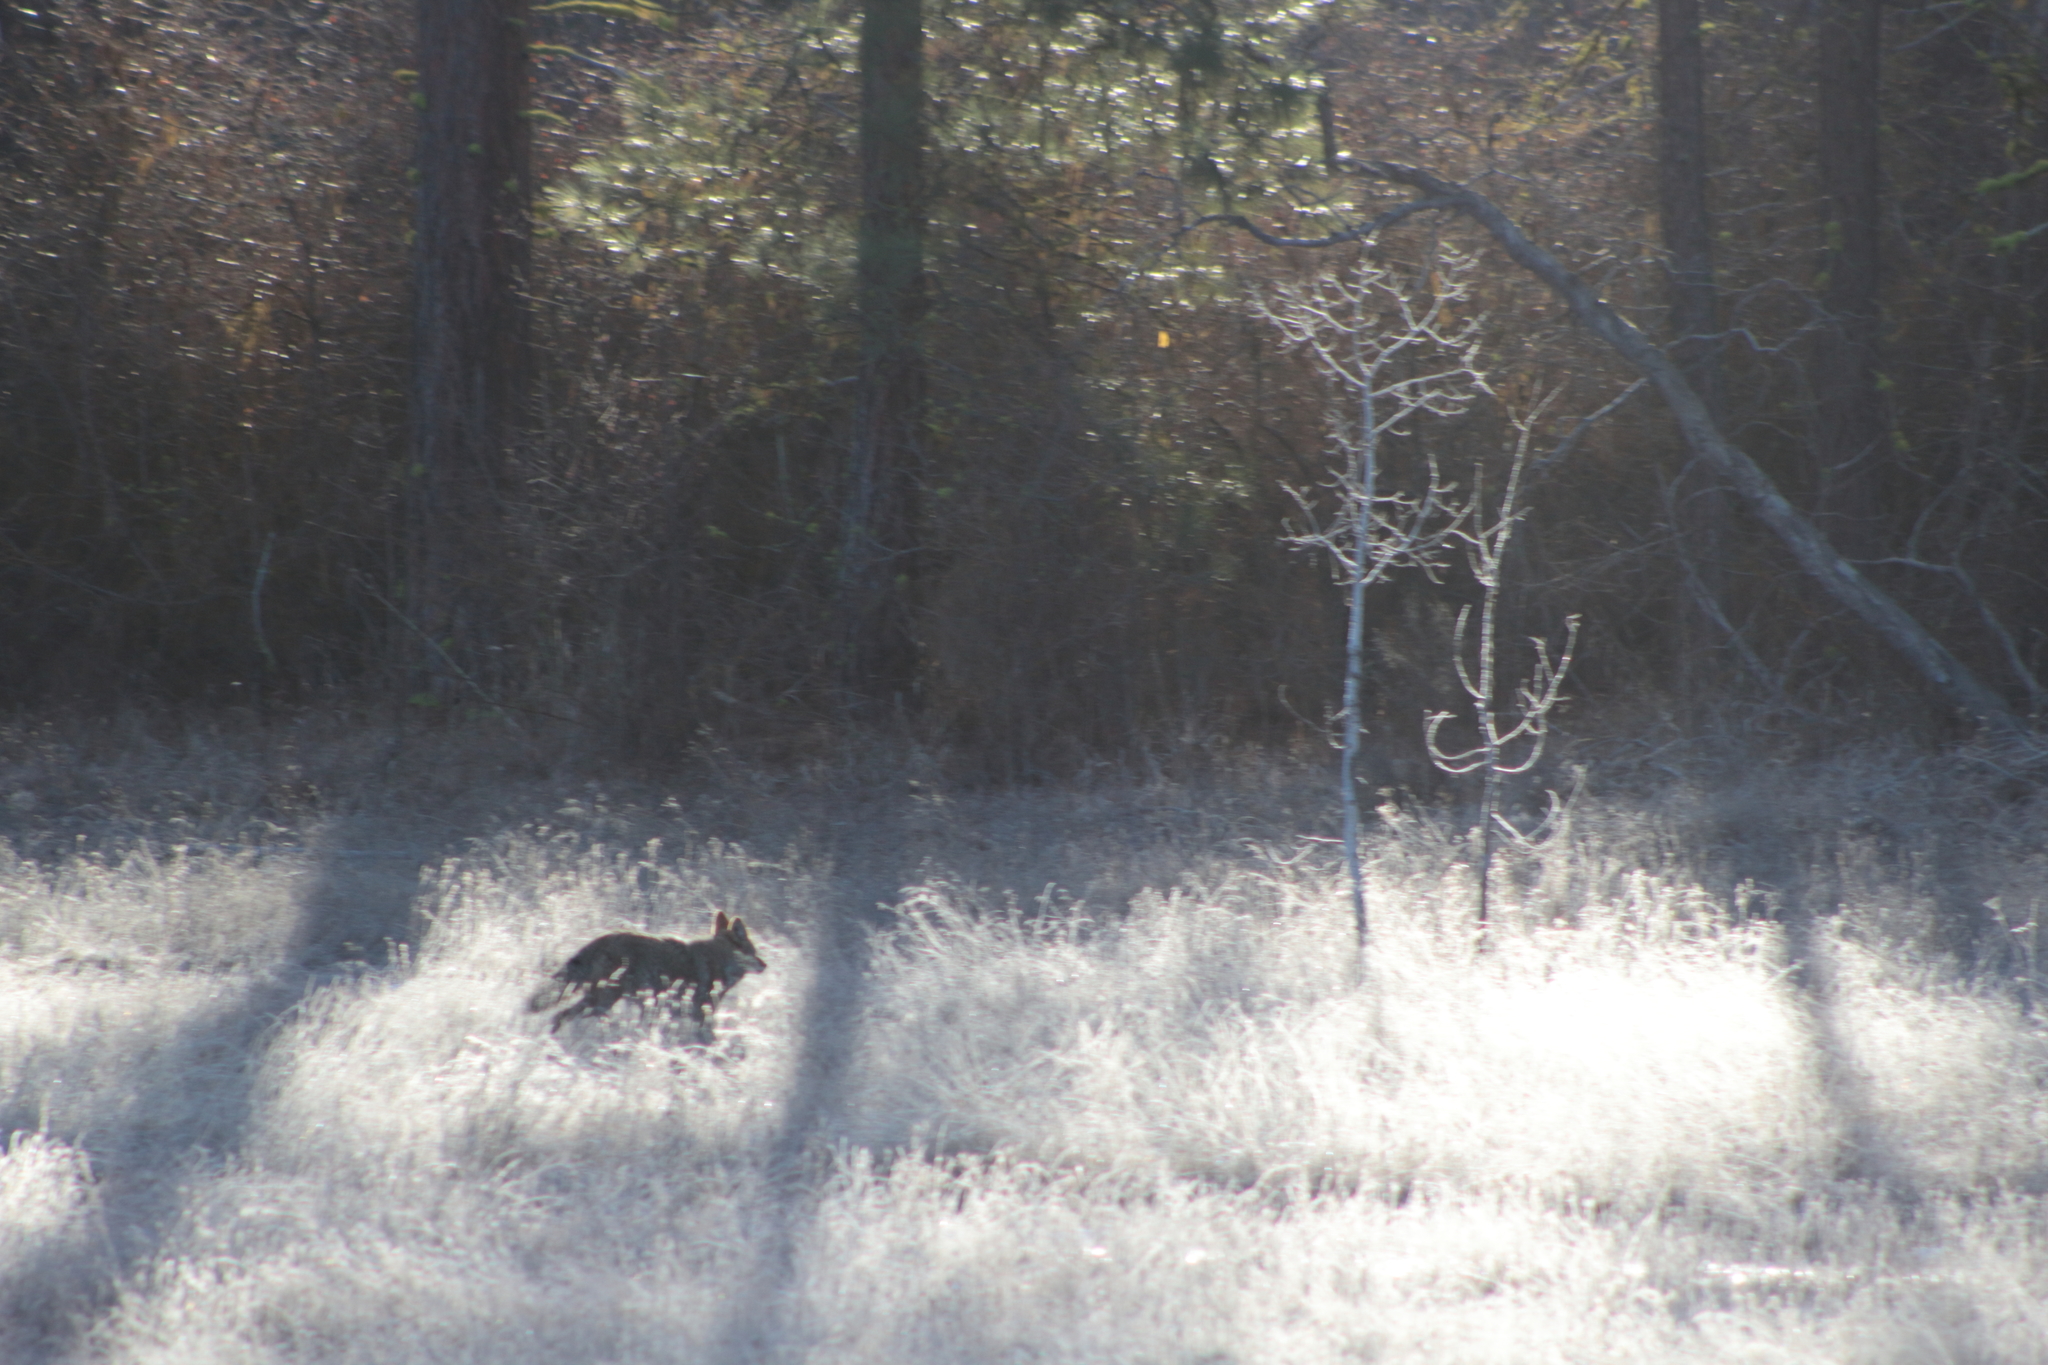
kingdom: Animalia
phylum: Chordata
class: Mammalia
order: Carnivora
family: Canidae
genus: Canis
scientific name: Canis latrans
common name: Coyote
